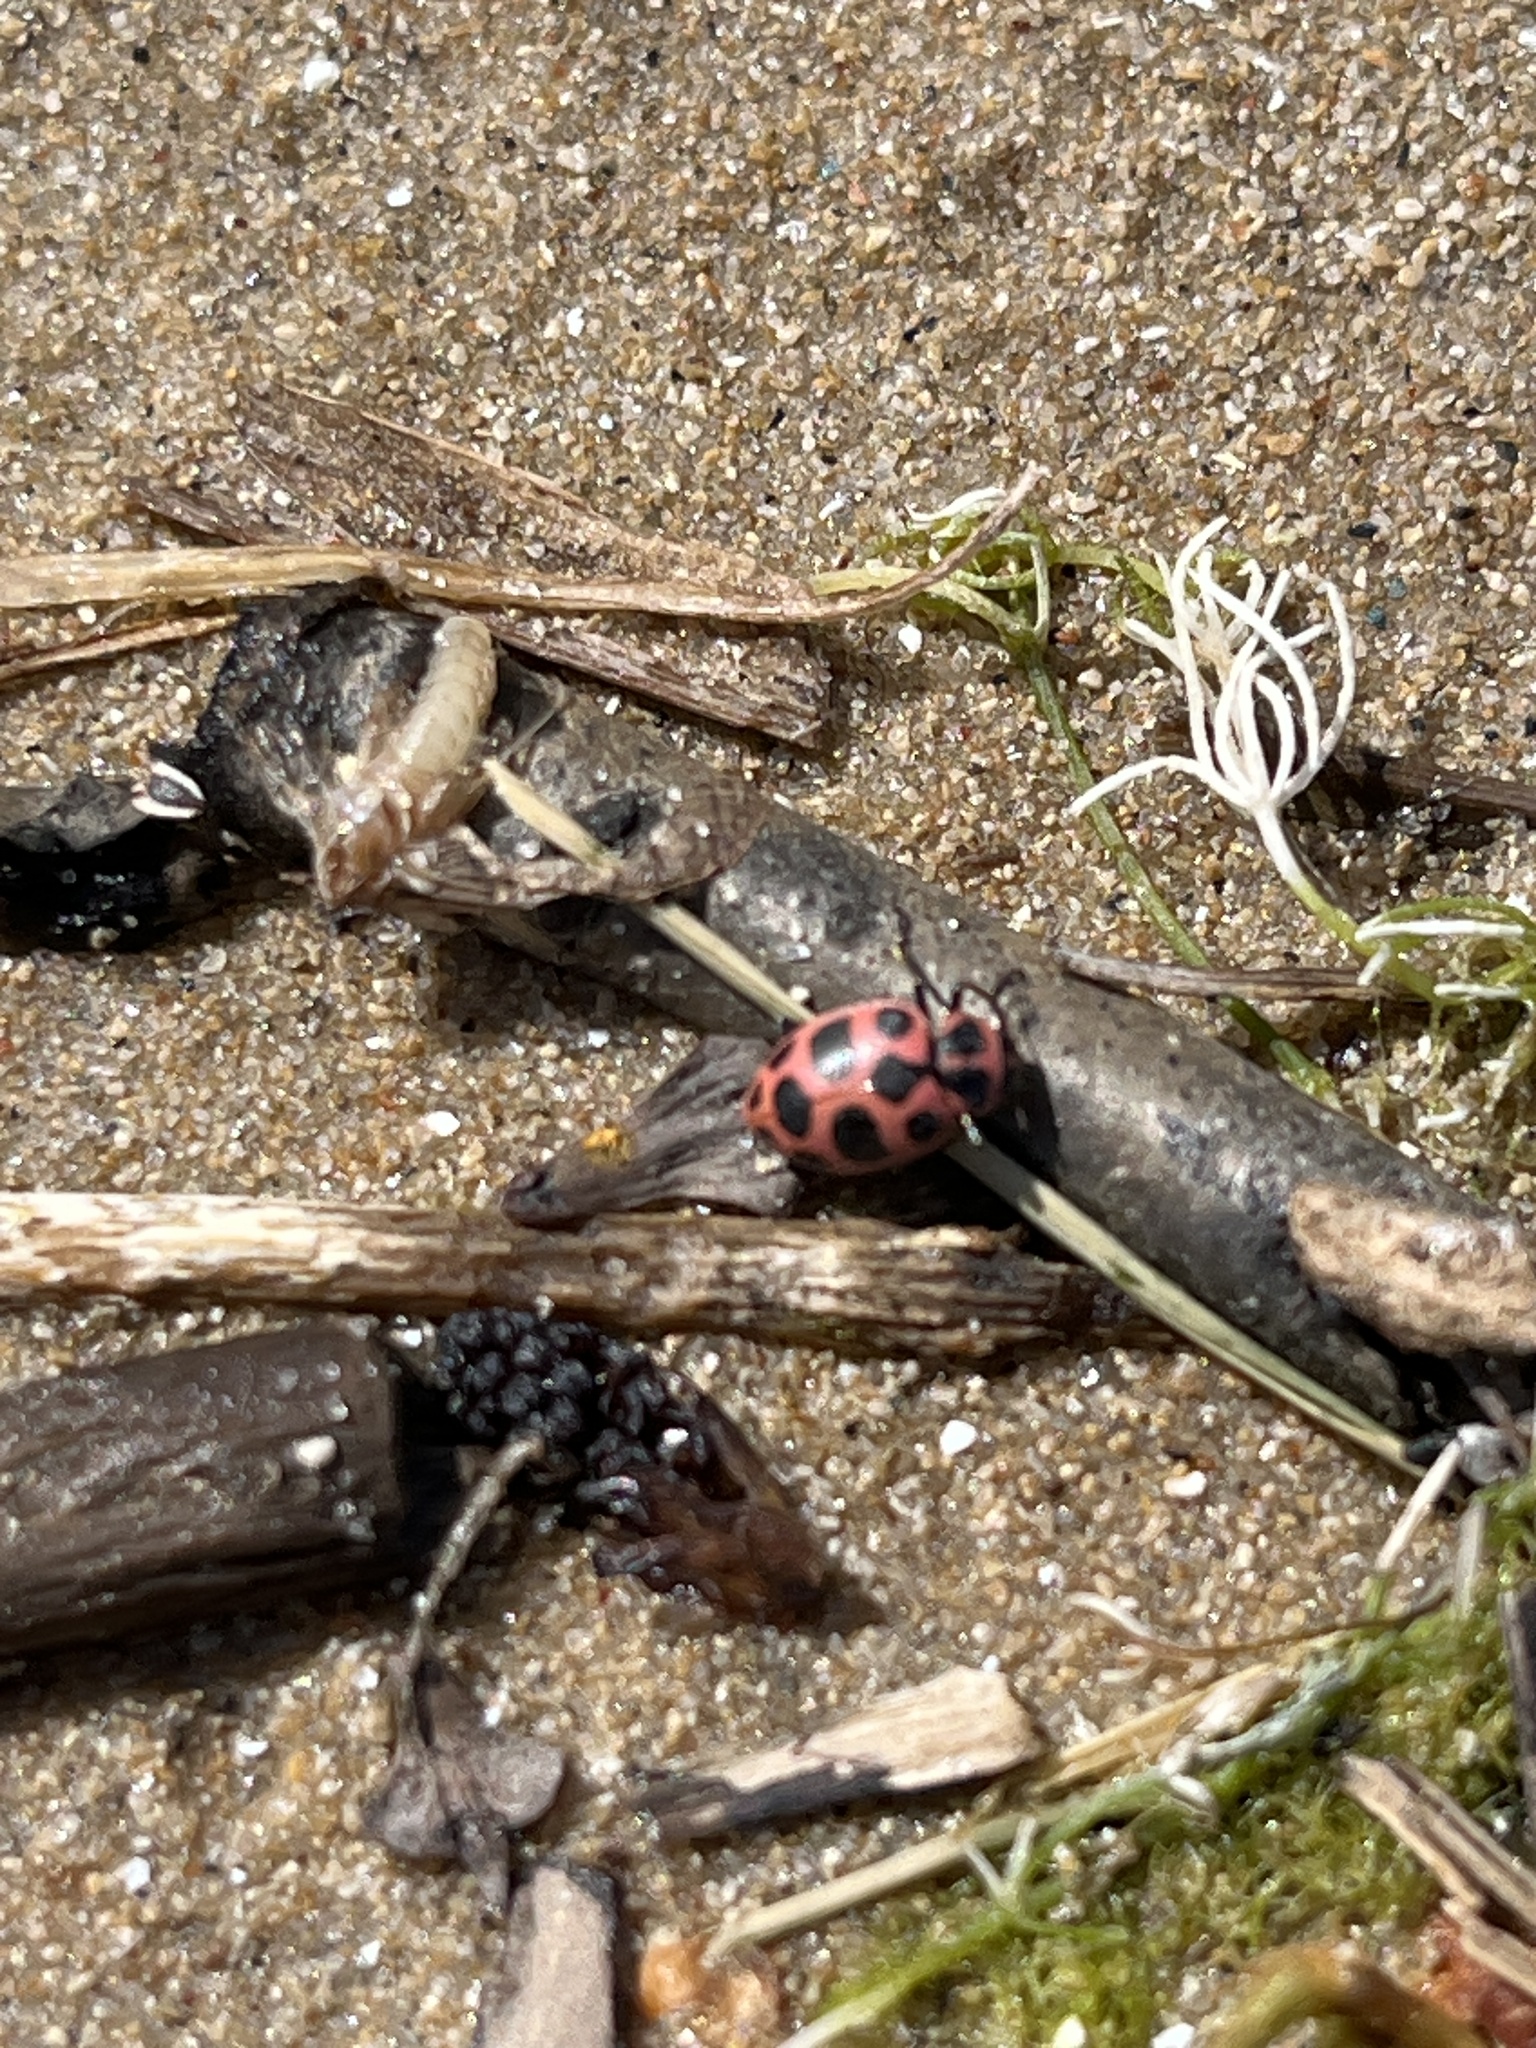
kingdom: Animalia
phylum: Arthropoda
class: Insecta
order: Coleoptera
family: Coccinellidae
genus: Coleomegilla
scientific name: Coleomegilla maculata
